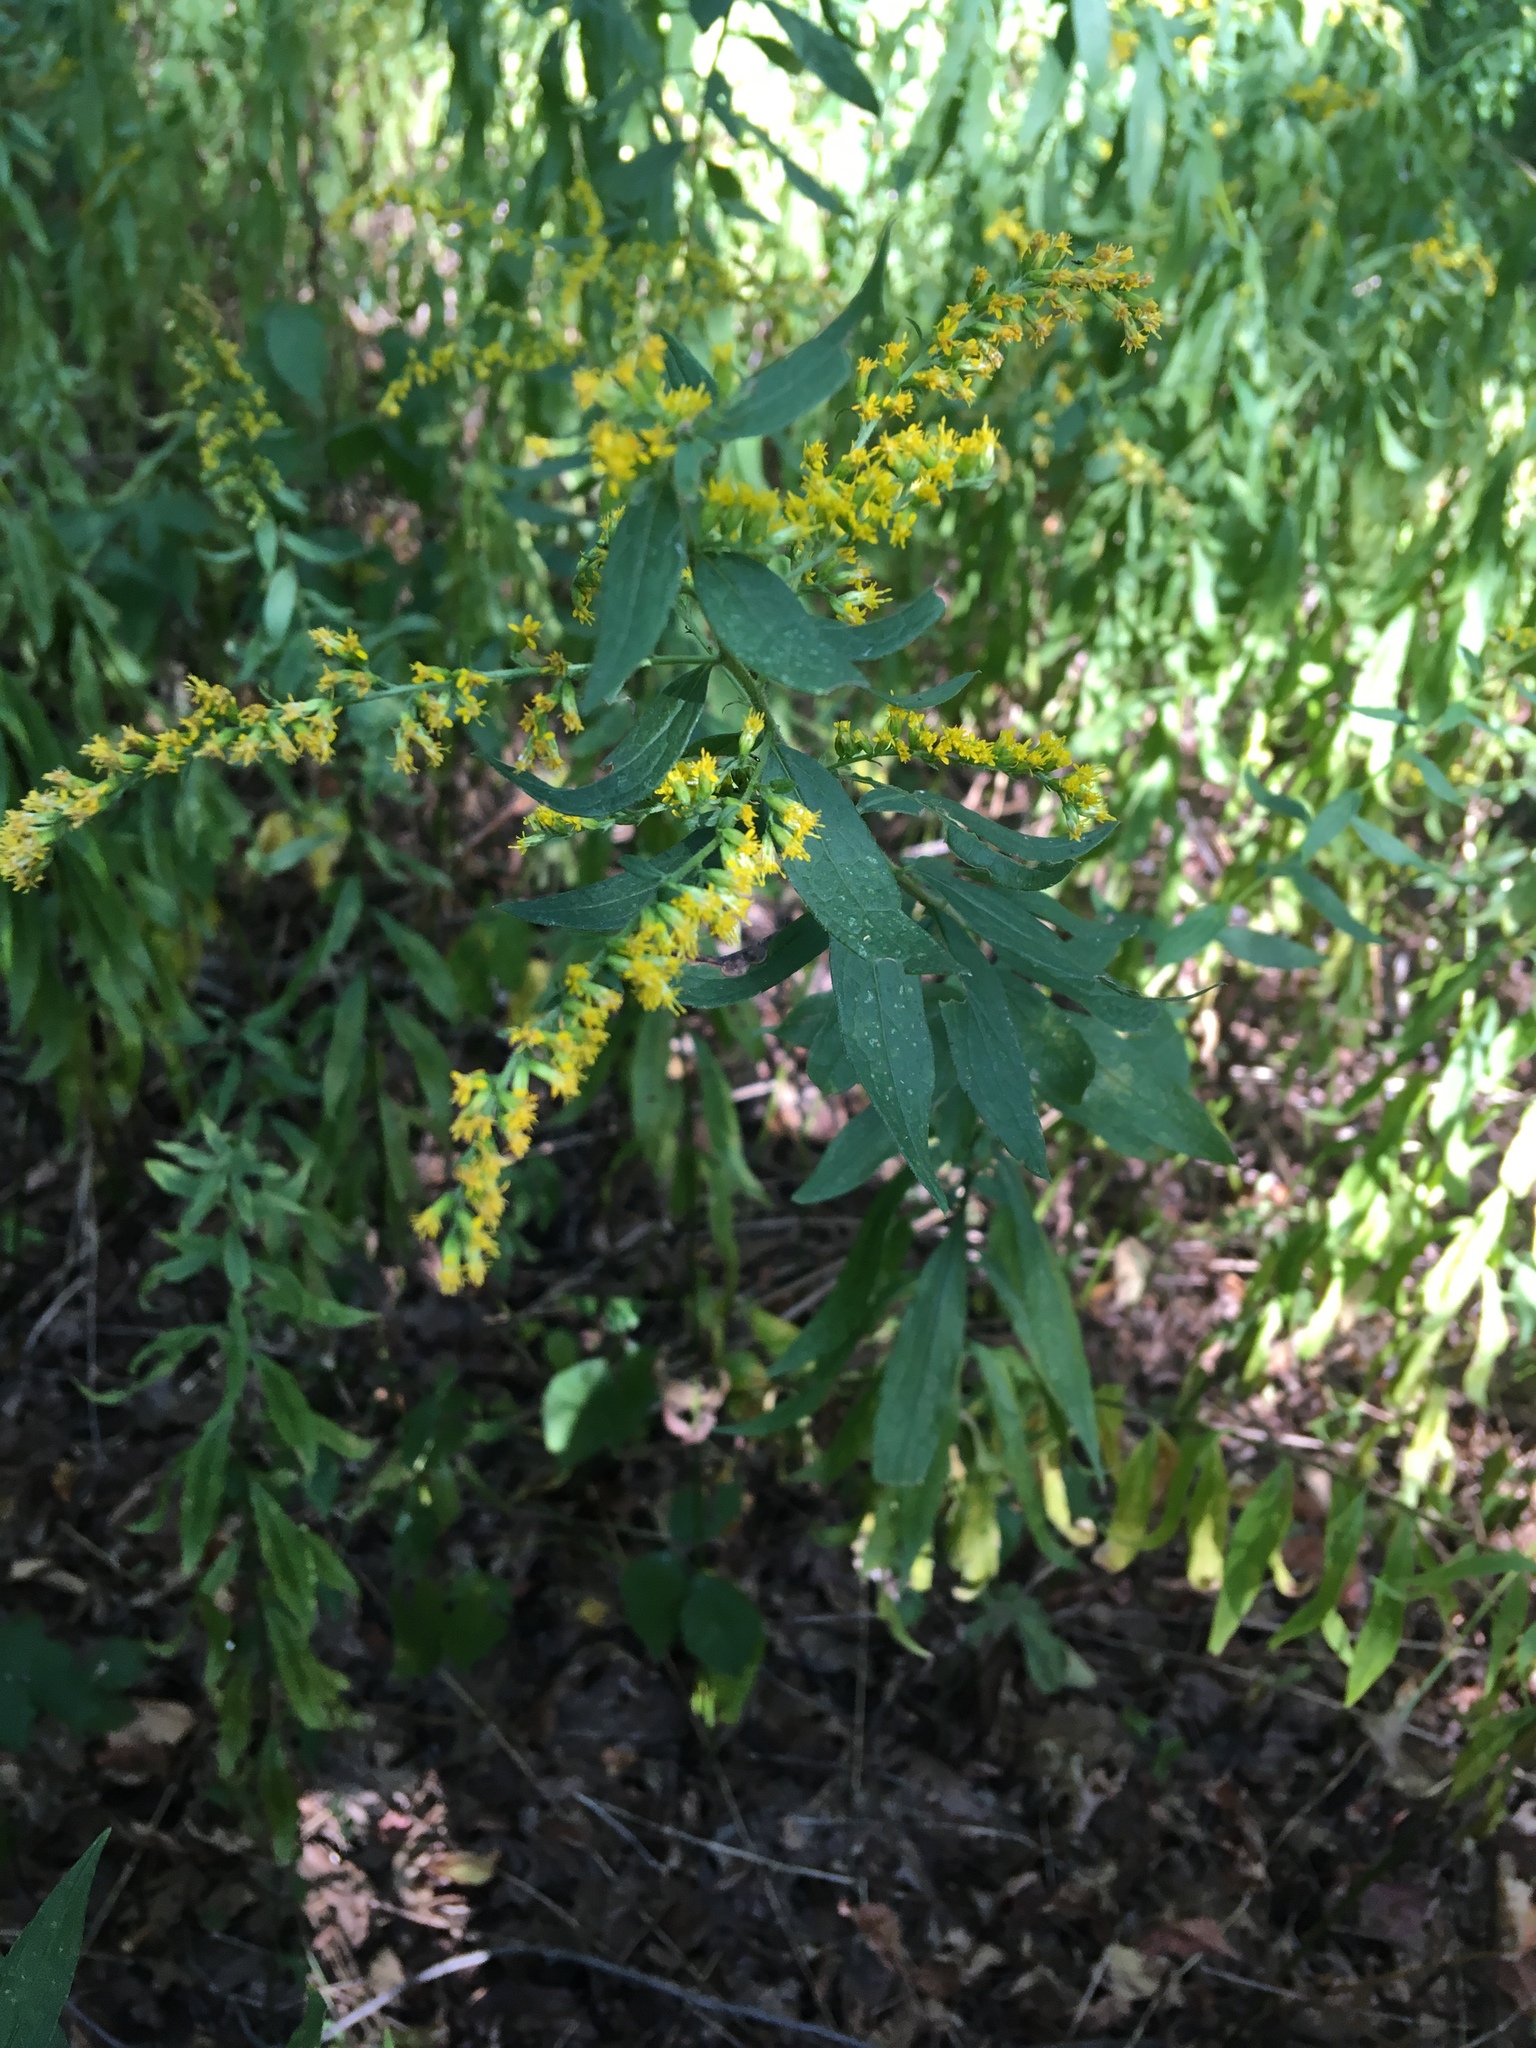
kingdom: Plantae
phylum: Tracheophyta
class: Magnoliopsida
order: Asterales
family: Asteraceae
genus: Solidago
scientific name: Solidago rugosa
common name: Rough-stemmed goldenrod
